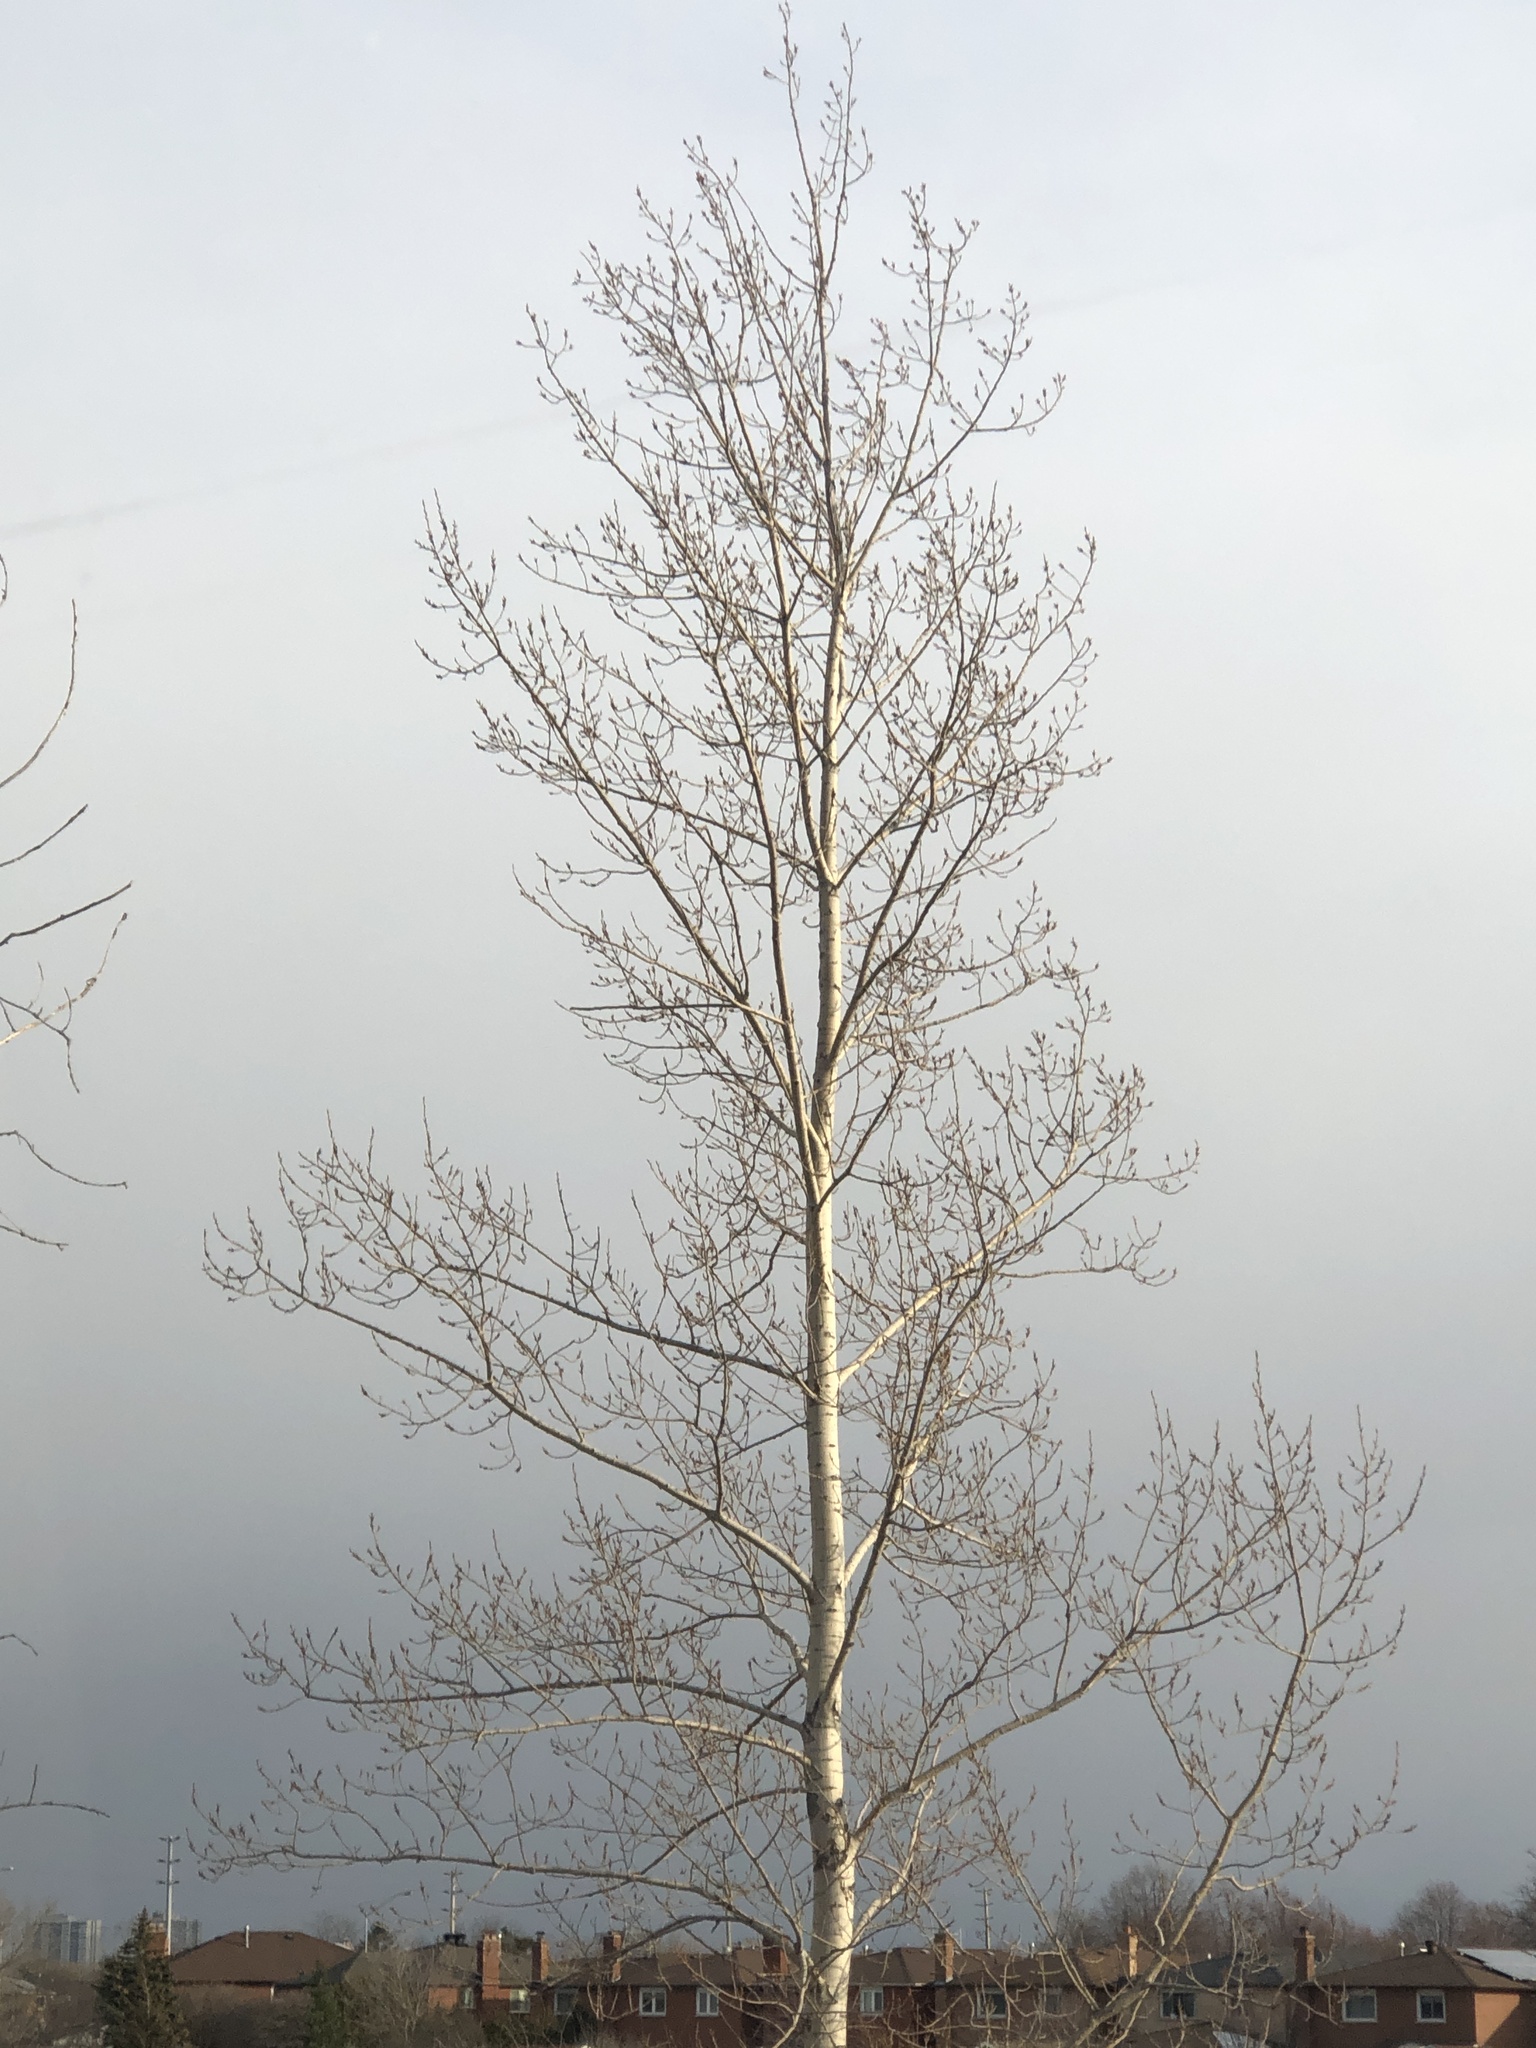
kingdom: Plantae
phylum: Tracheophyta
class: Magnoliopsida
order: Malpighiales
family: Salicaceae
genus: Populus
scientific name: Populus tremuloides
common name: Quaking aspen
